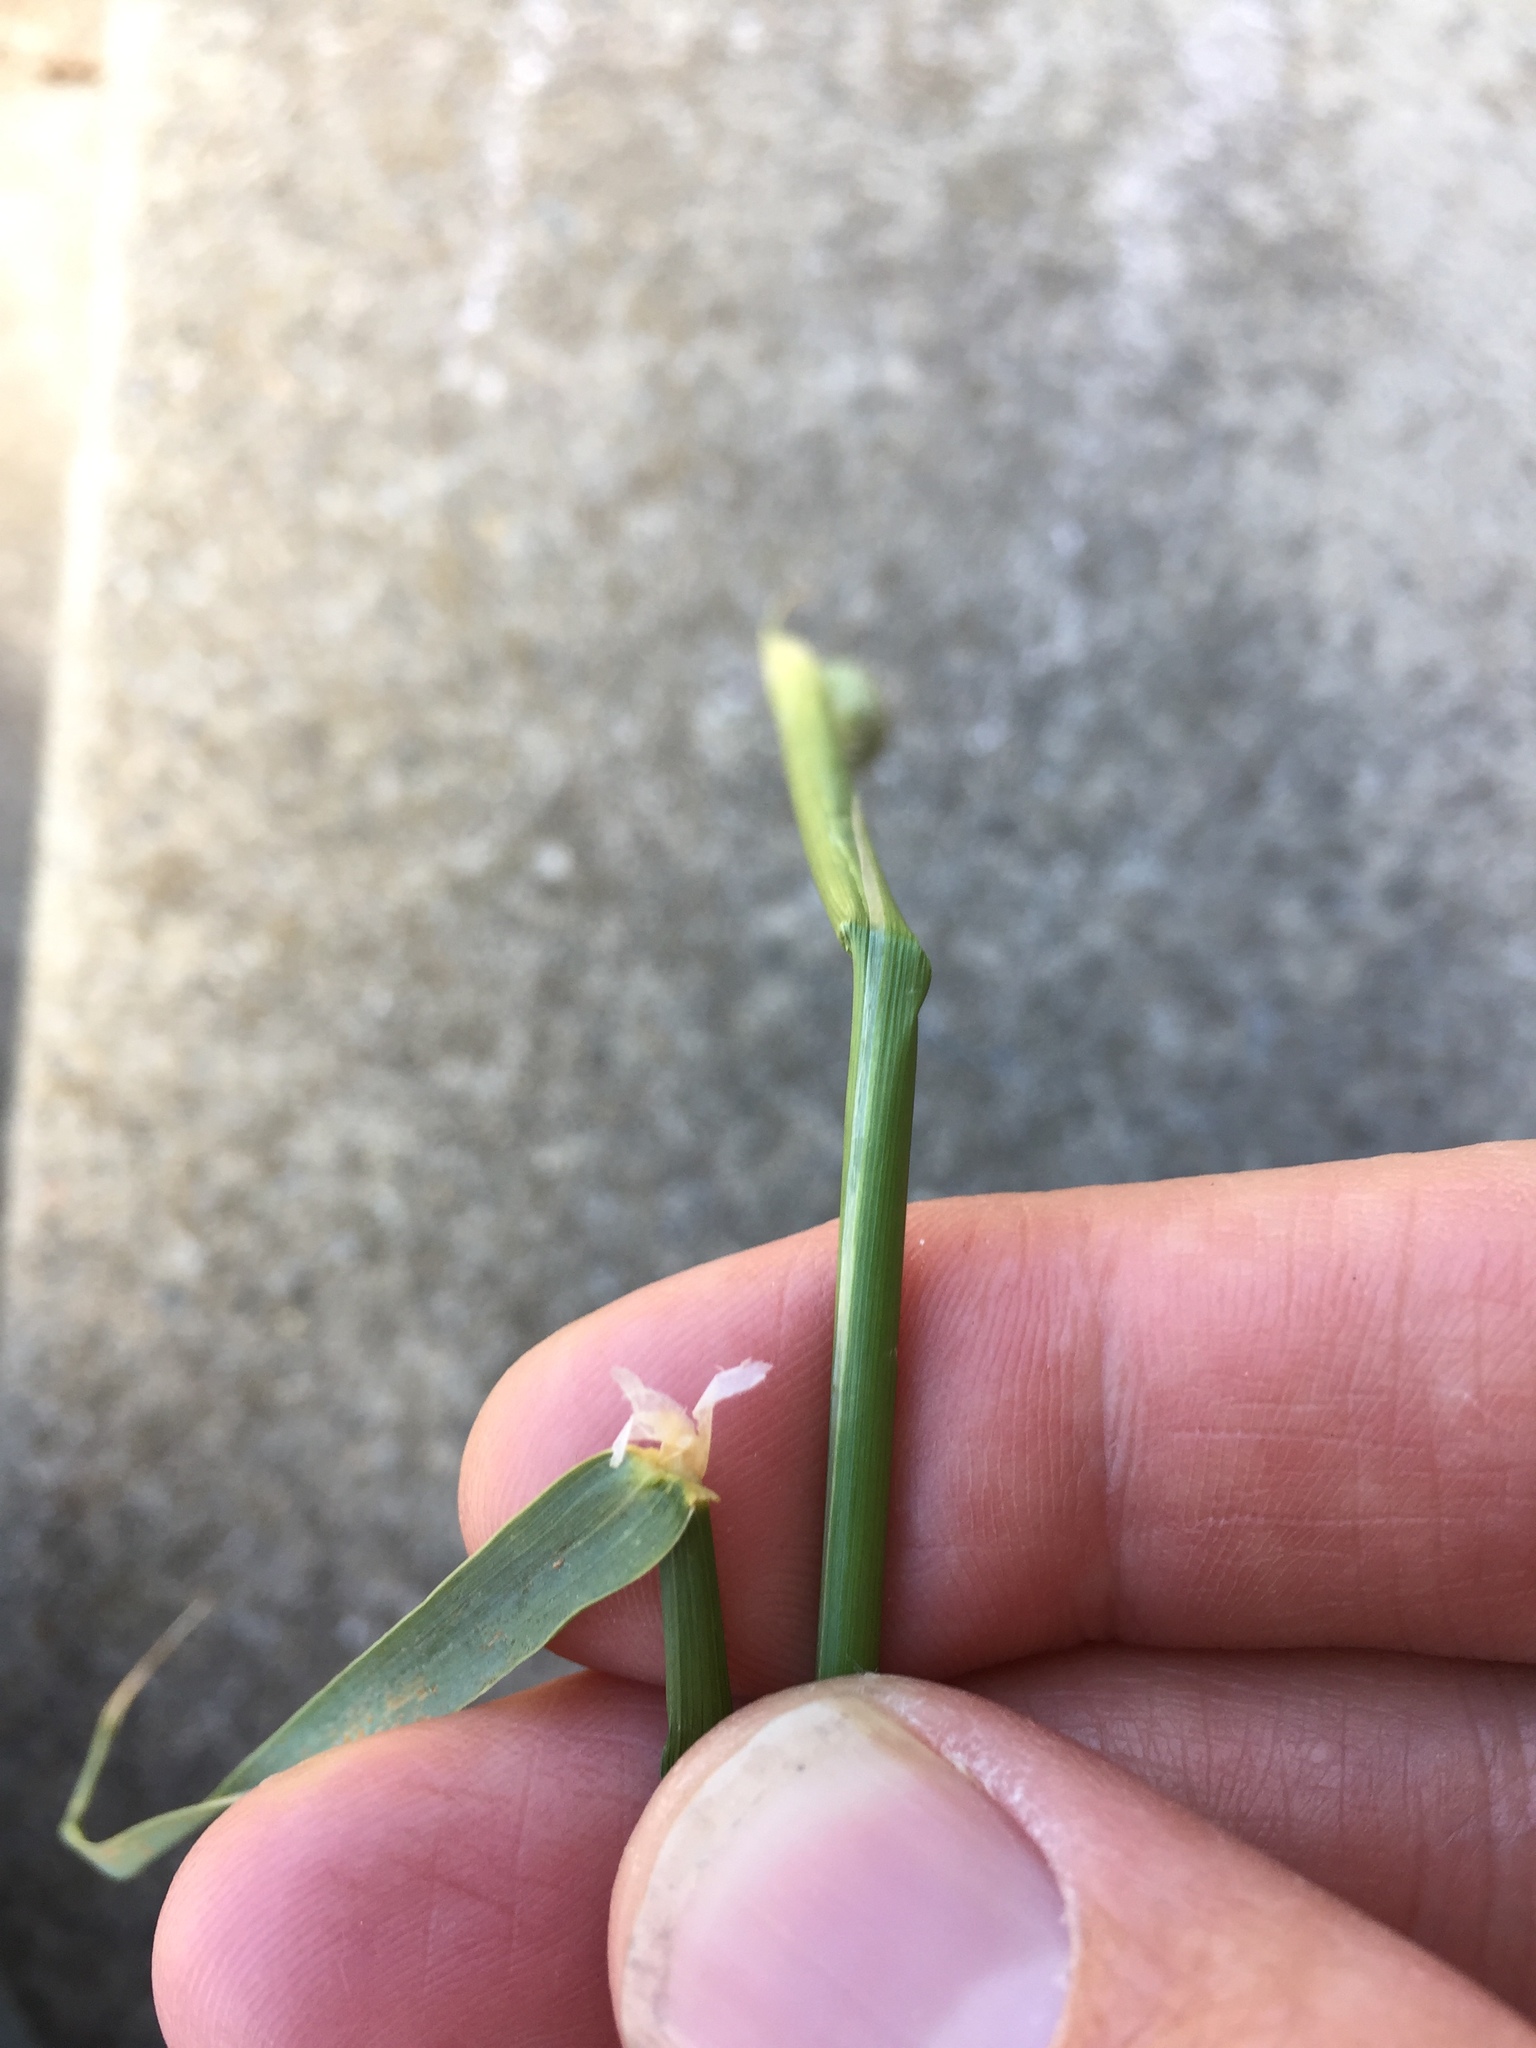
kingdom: Plantae
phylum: Tracheophyta
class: Liliopsida
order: Poales
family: Poaceae
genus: Phalaris
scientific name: Phalaris aquatica
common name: Bulbous canary-grass
